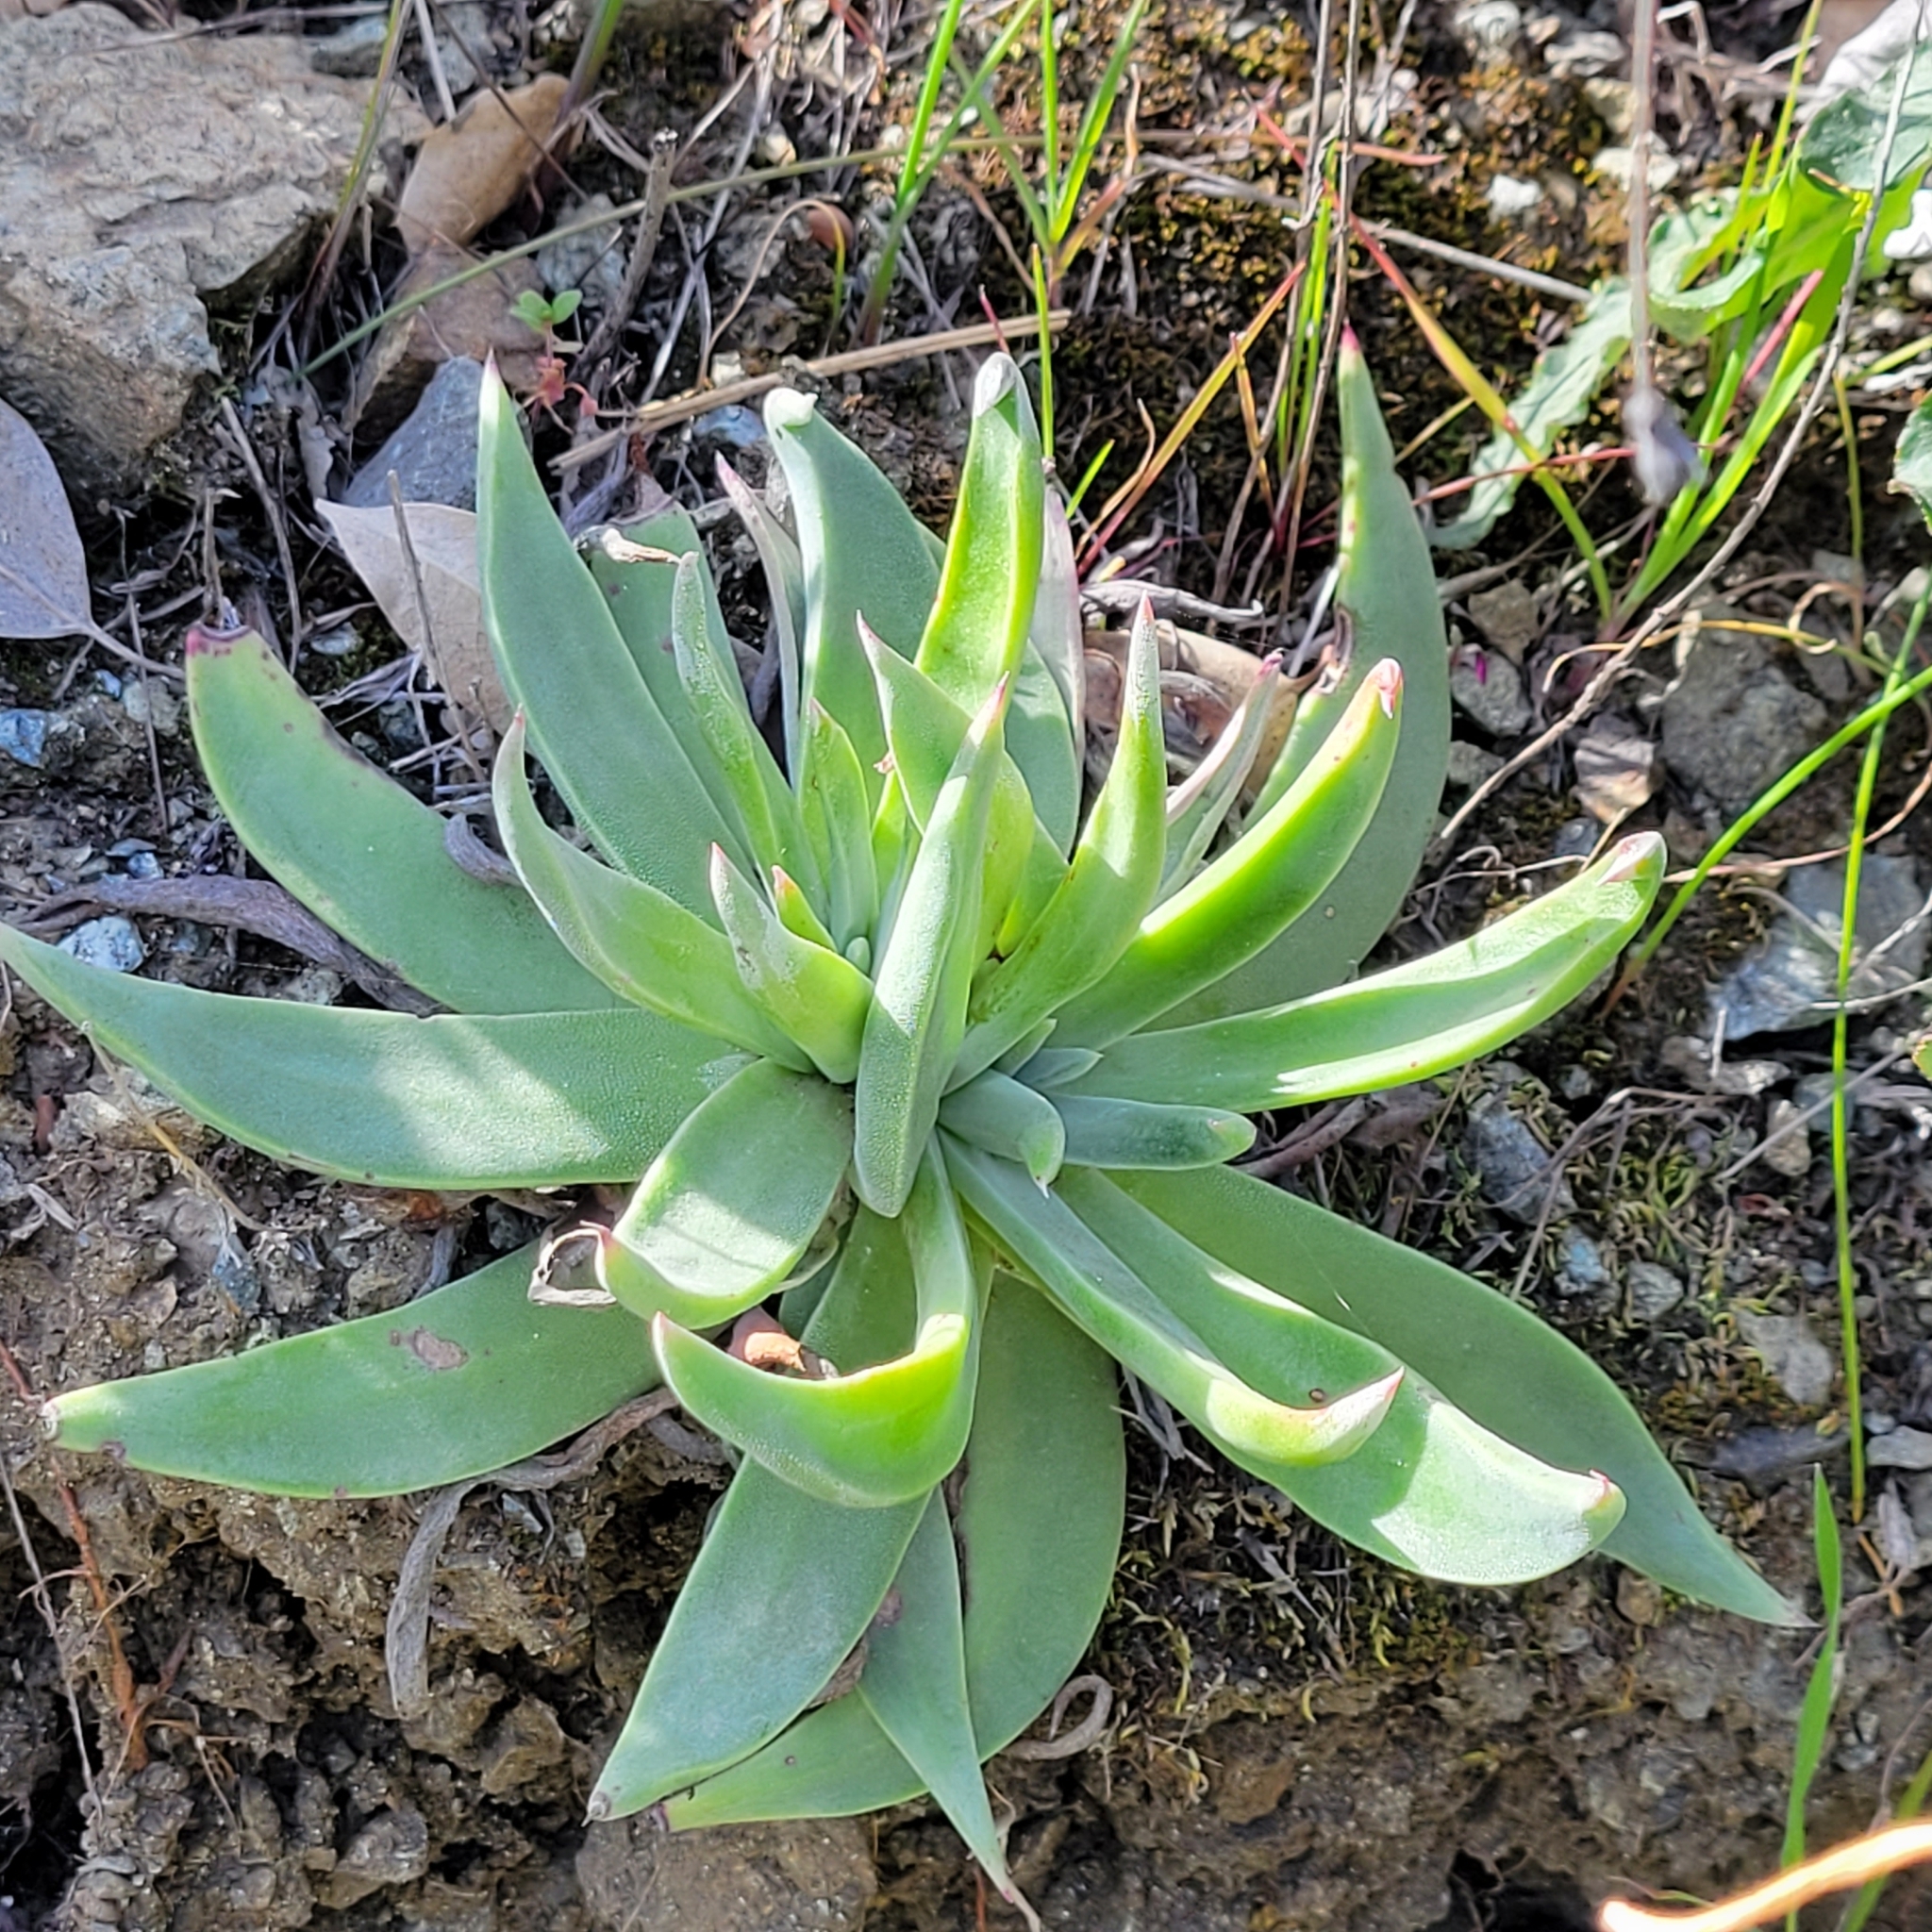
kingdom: Plantae
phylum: Tracheophyta
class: Magnoliopsida
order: Saxifragales
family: Crassulaceae
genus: Dudleya
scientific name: Dudleya lanceolata
